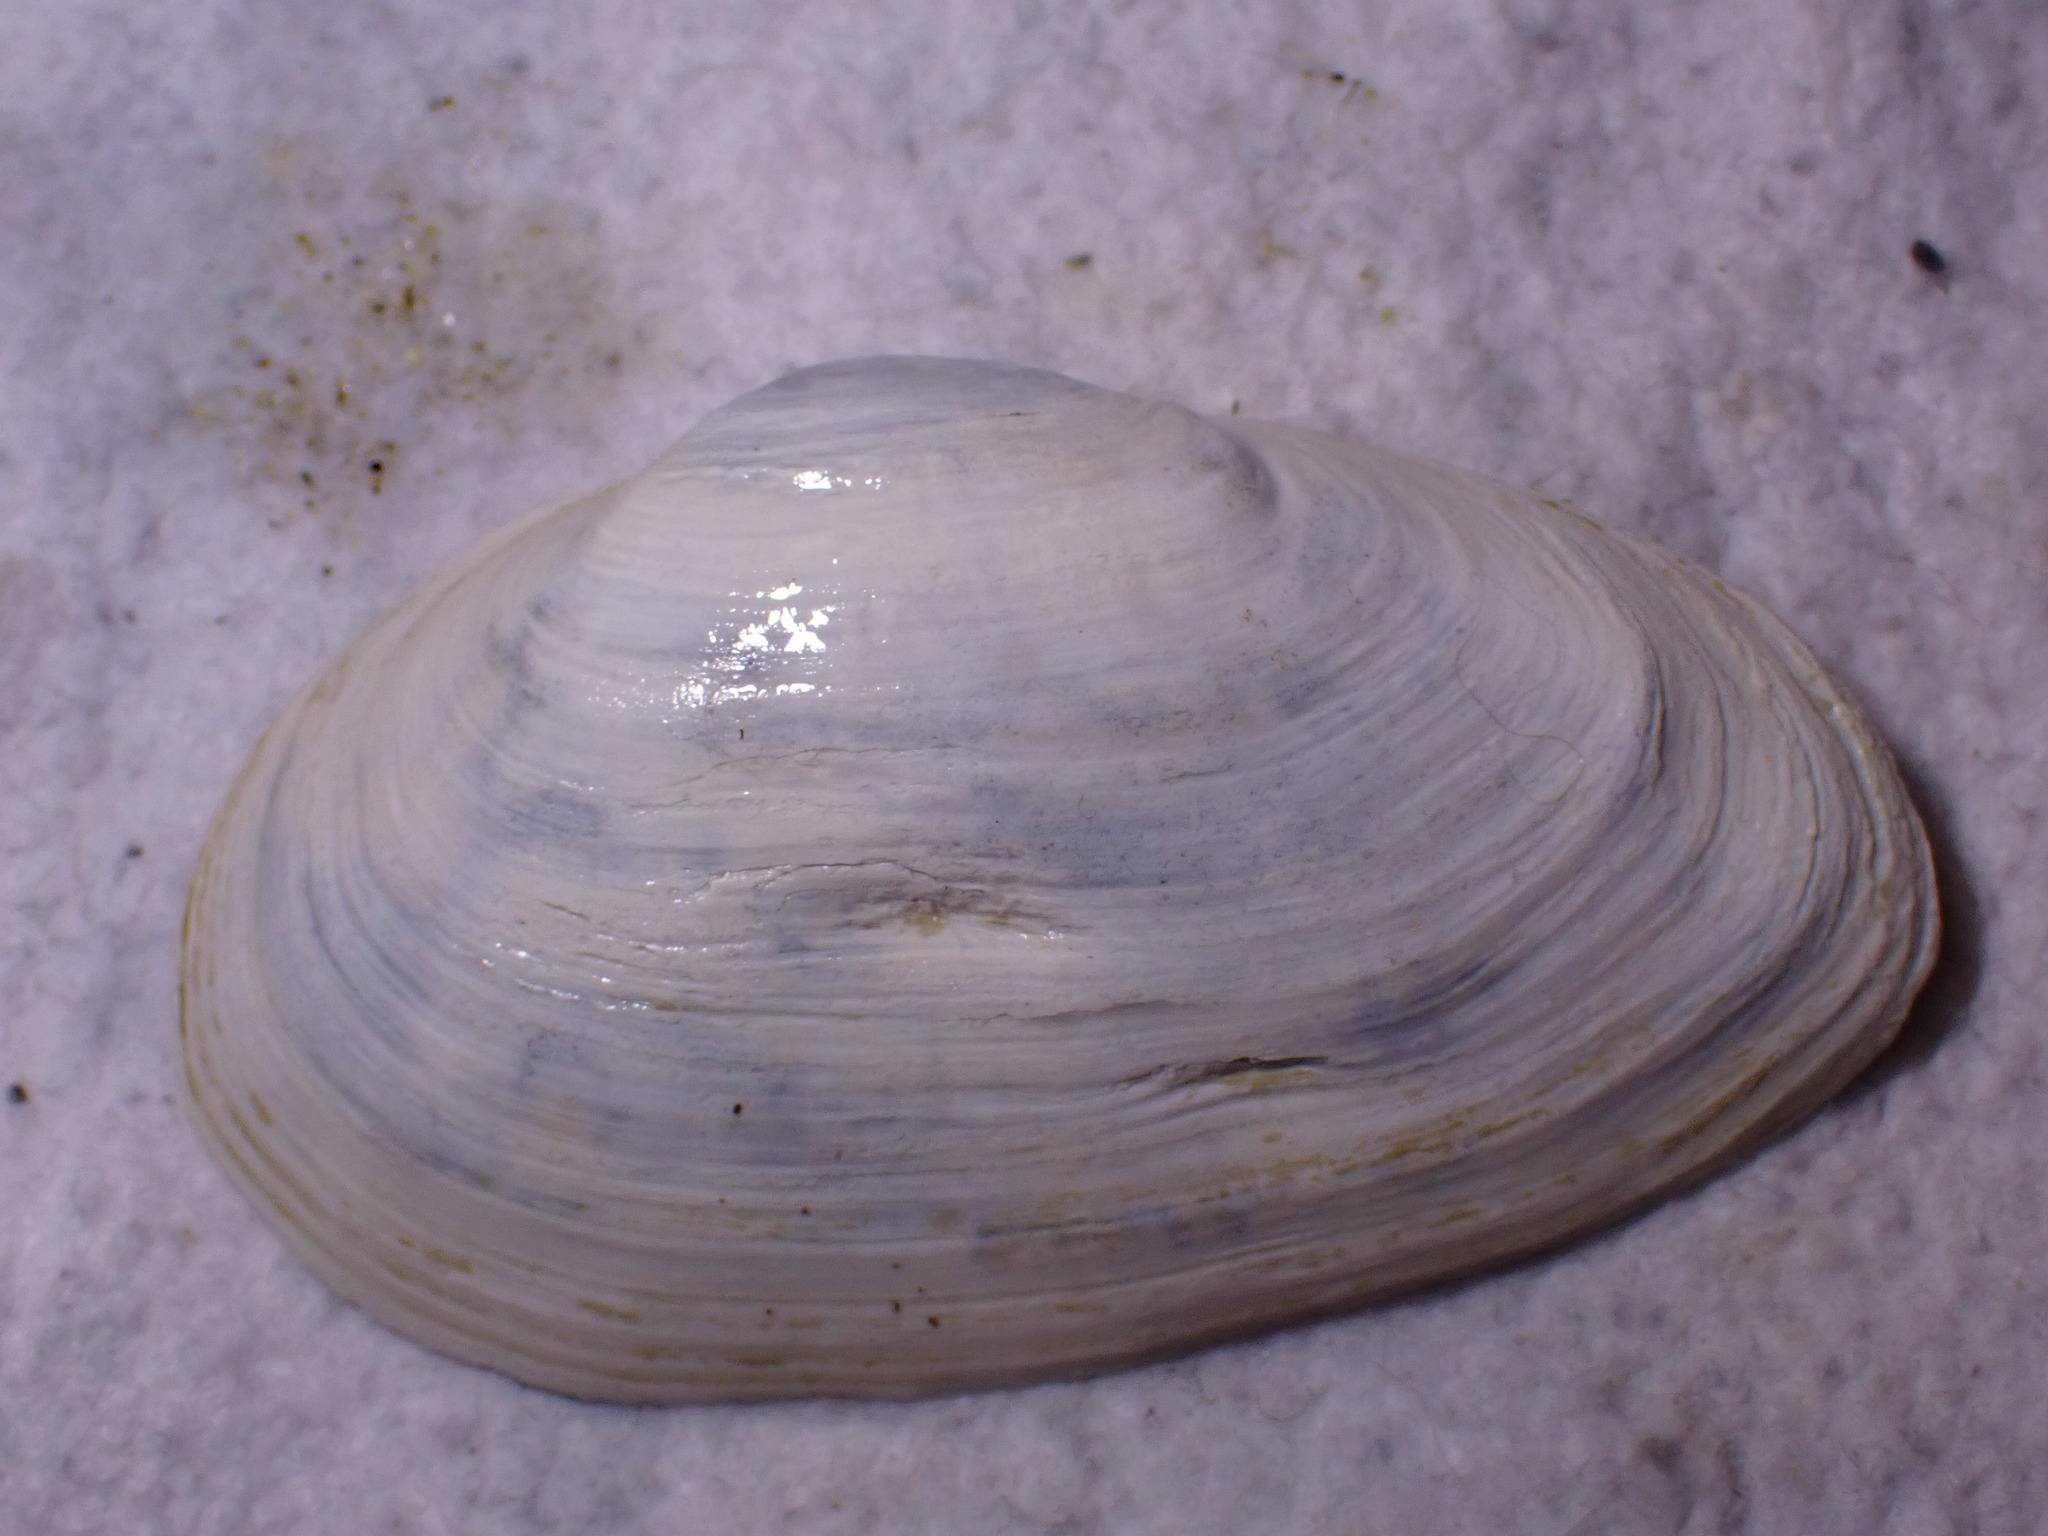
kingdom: Animalia
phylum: Mollusca
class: Bivalvia
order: Myida
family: Myidae
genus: Mya
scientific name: Mya arenaria
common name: Soft-shelled clam
